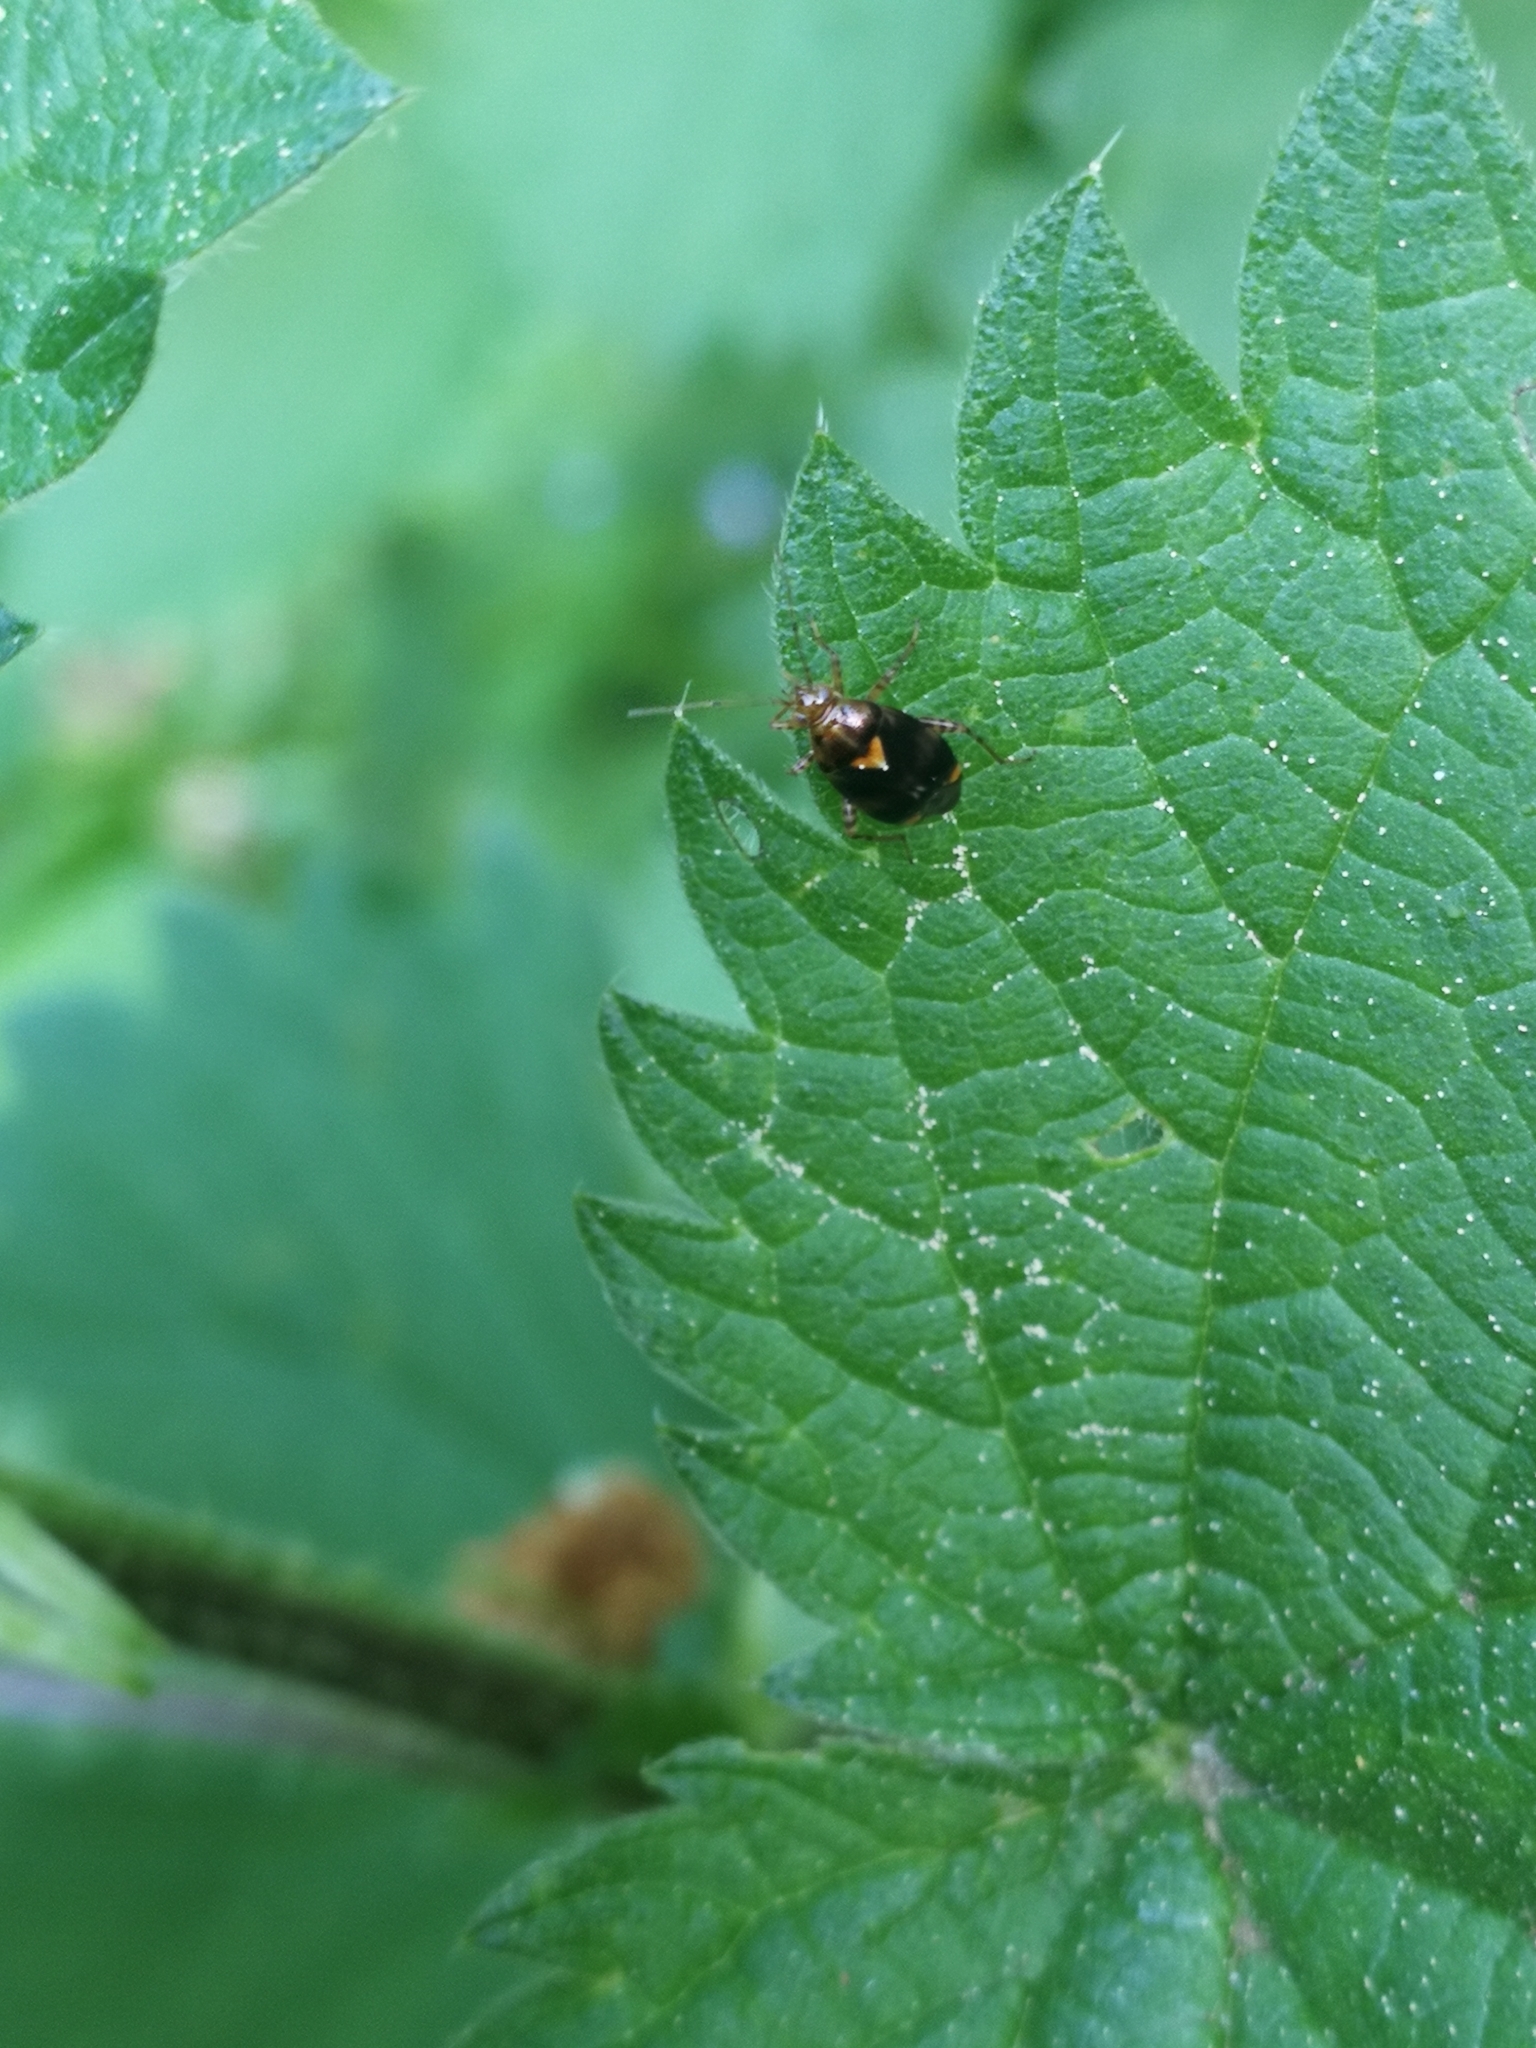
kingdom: Animalia
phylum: Arthropoda
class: Insecta
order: Hemiptera
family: Miridae
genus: Liocoris
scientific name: Liocoris tripustulatus
